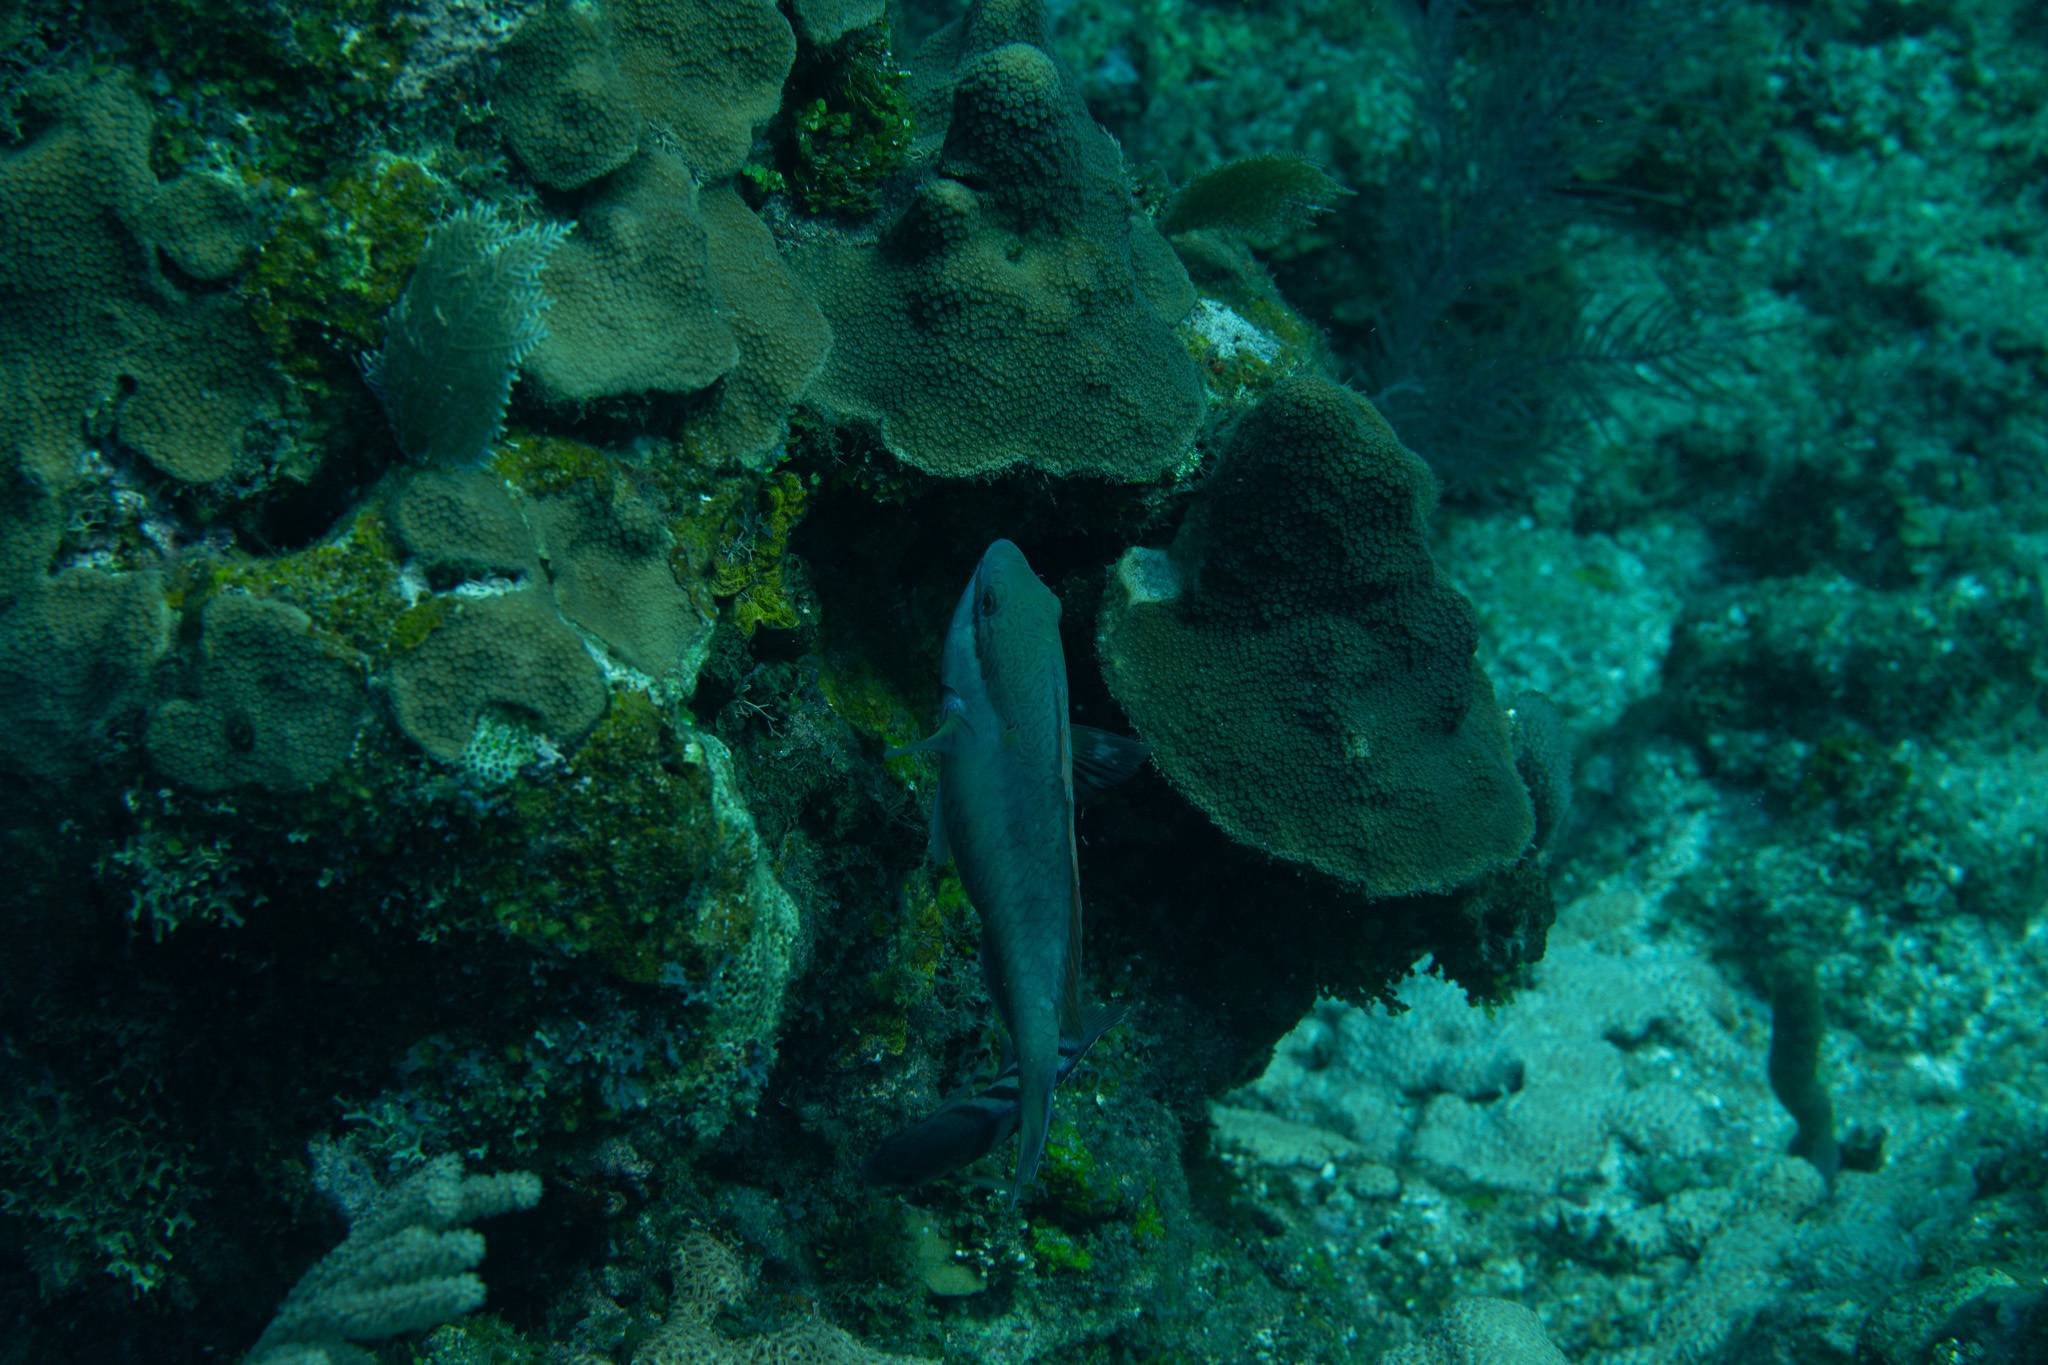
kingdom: Animalia
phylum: Chordata
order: Perciformes
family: Scaridae
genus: Sparisoma
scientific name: Sparisoma aurofrenatum
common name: Redband parrotfish
